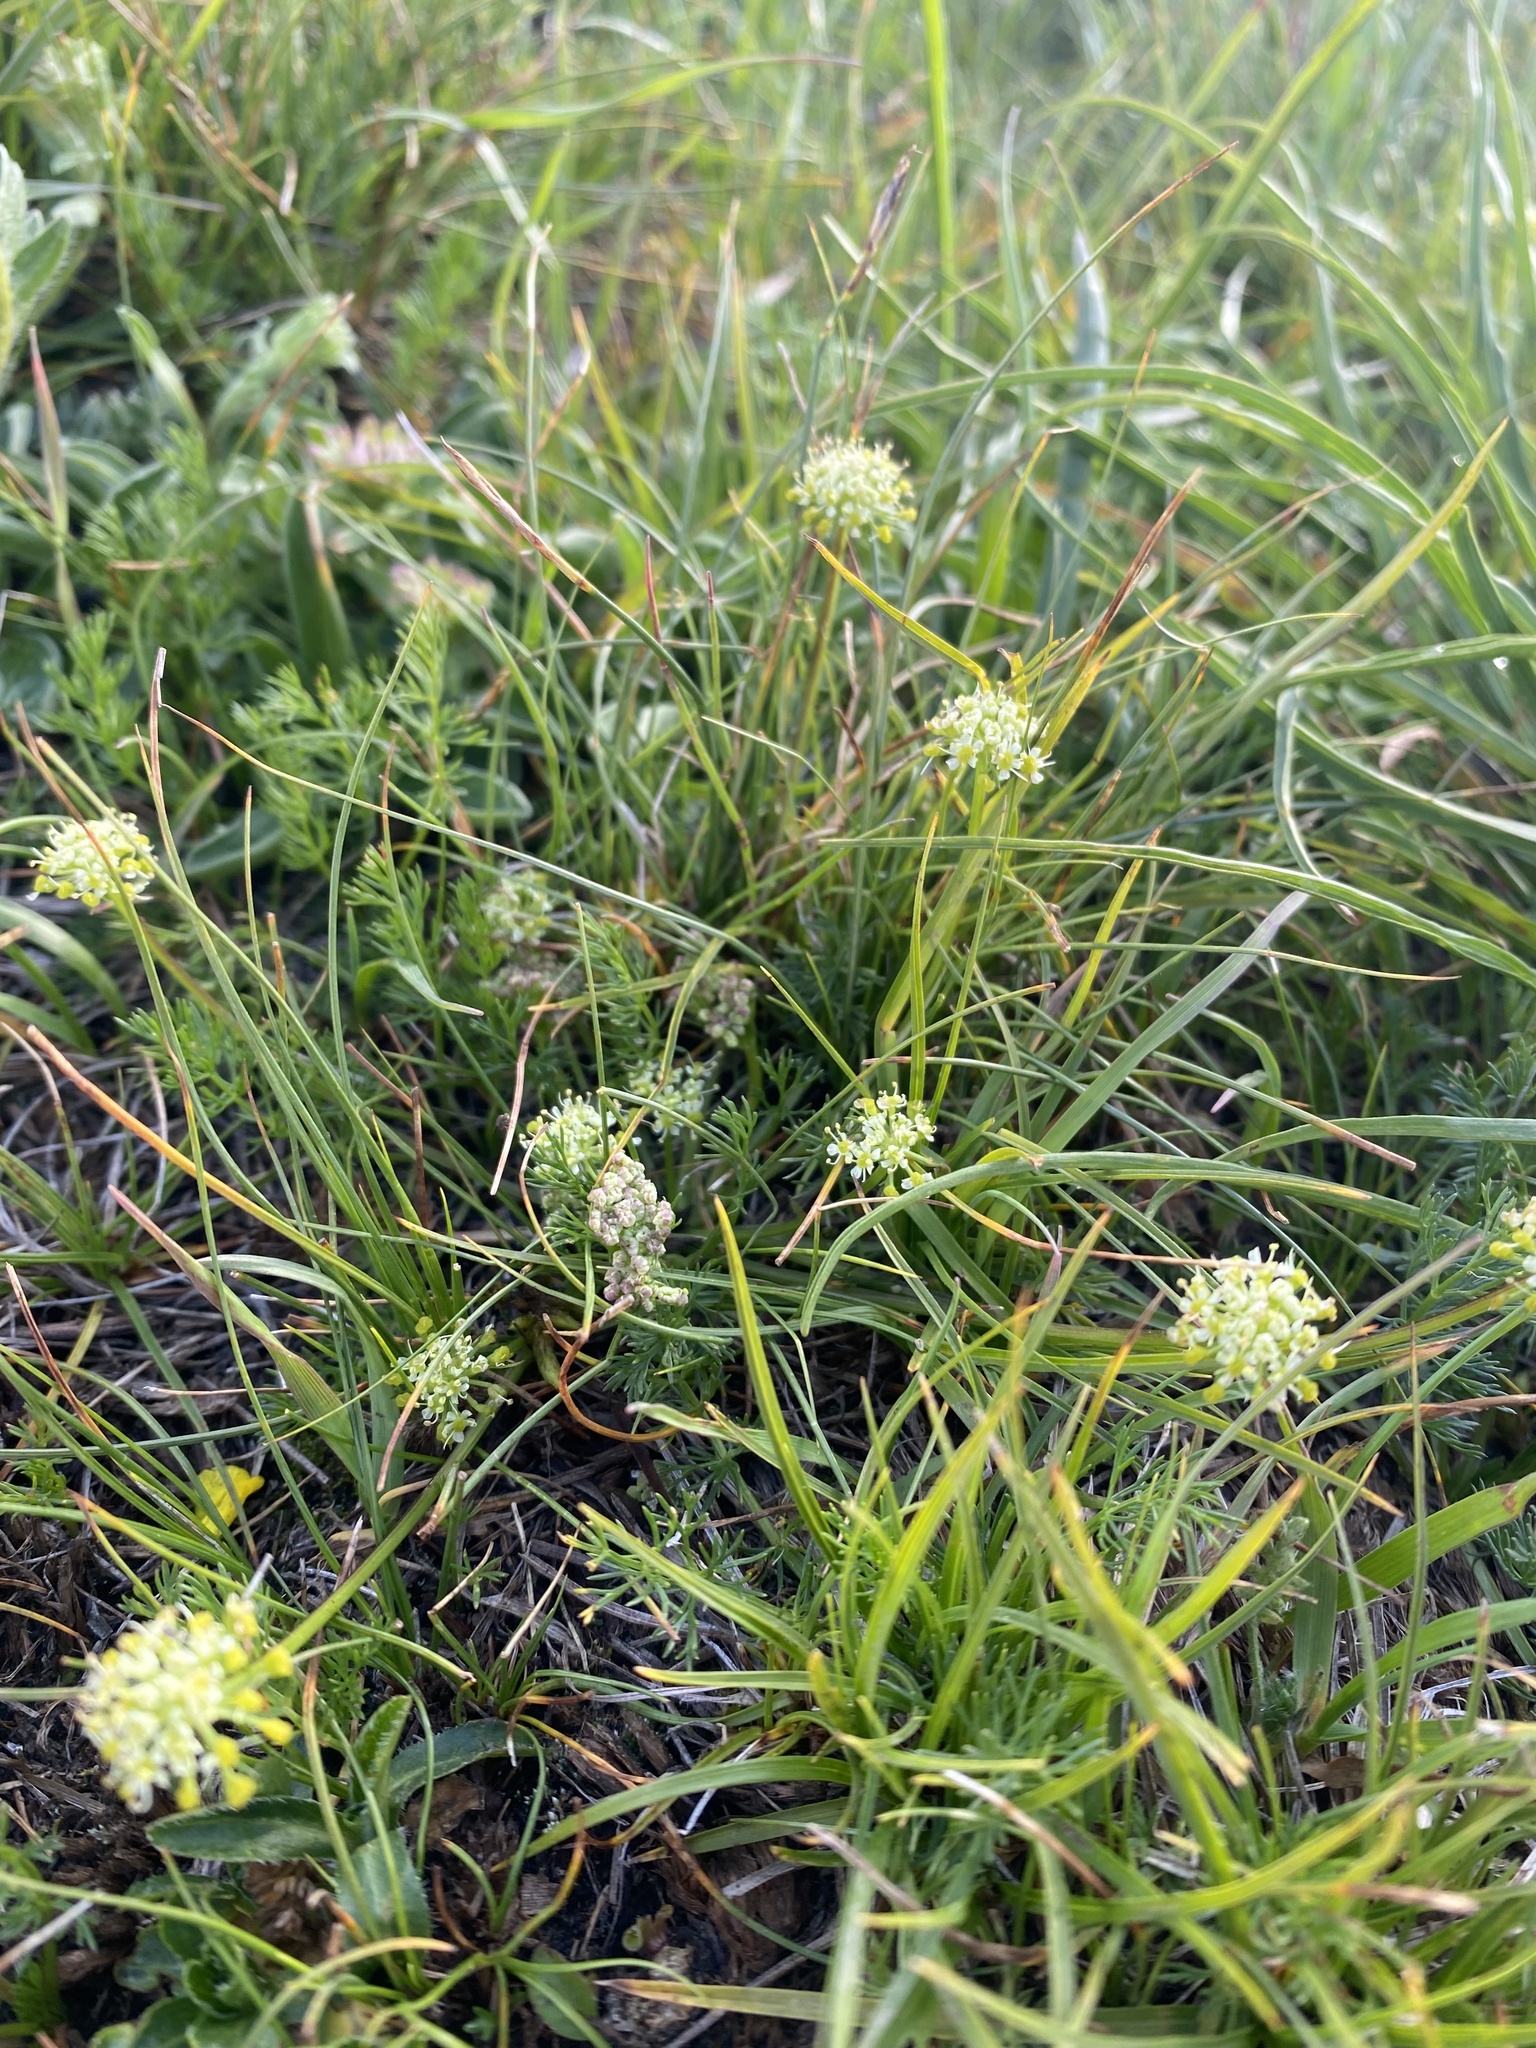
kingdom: Plantae
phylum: Tracheophyta
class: Magnoliopsida
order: Apiales
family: Apiaceae
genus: Chamaesciadium
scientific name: Chamaesciadium acaule
